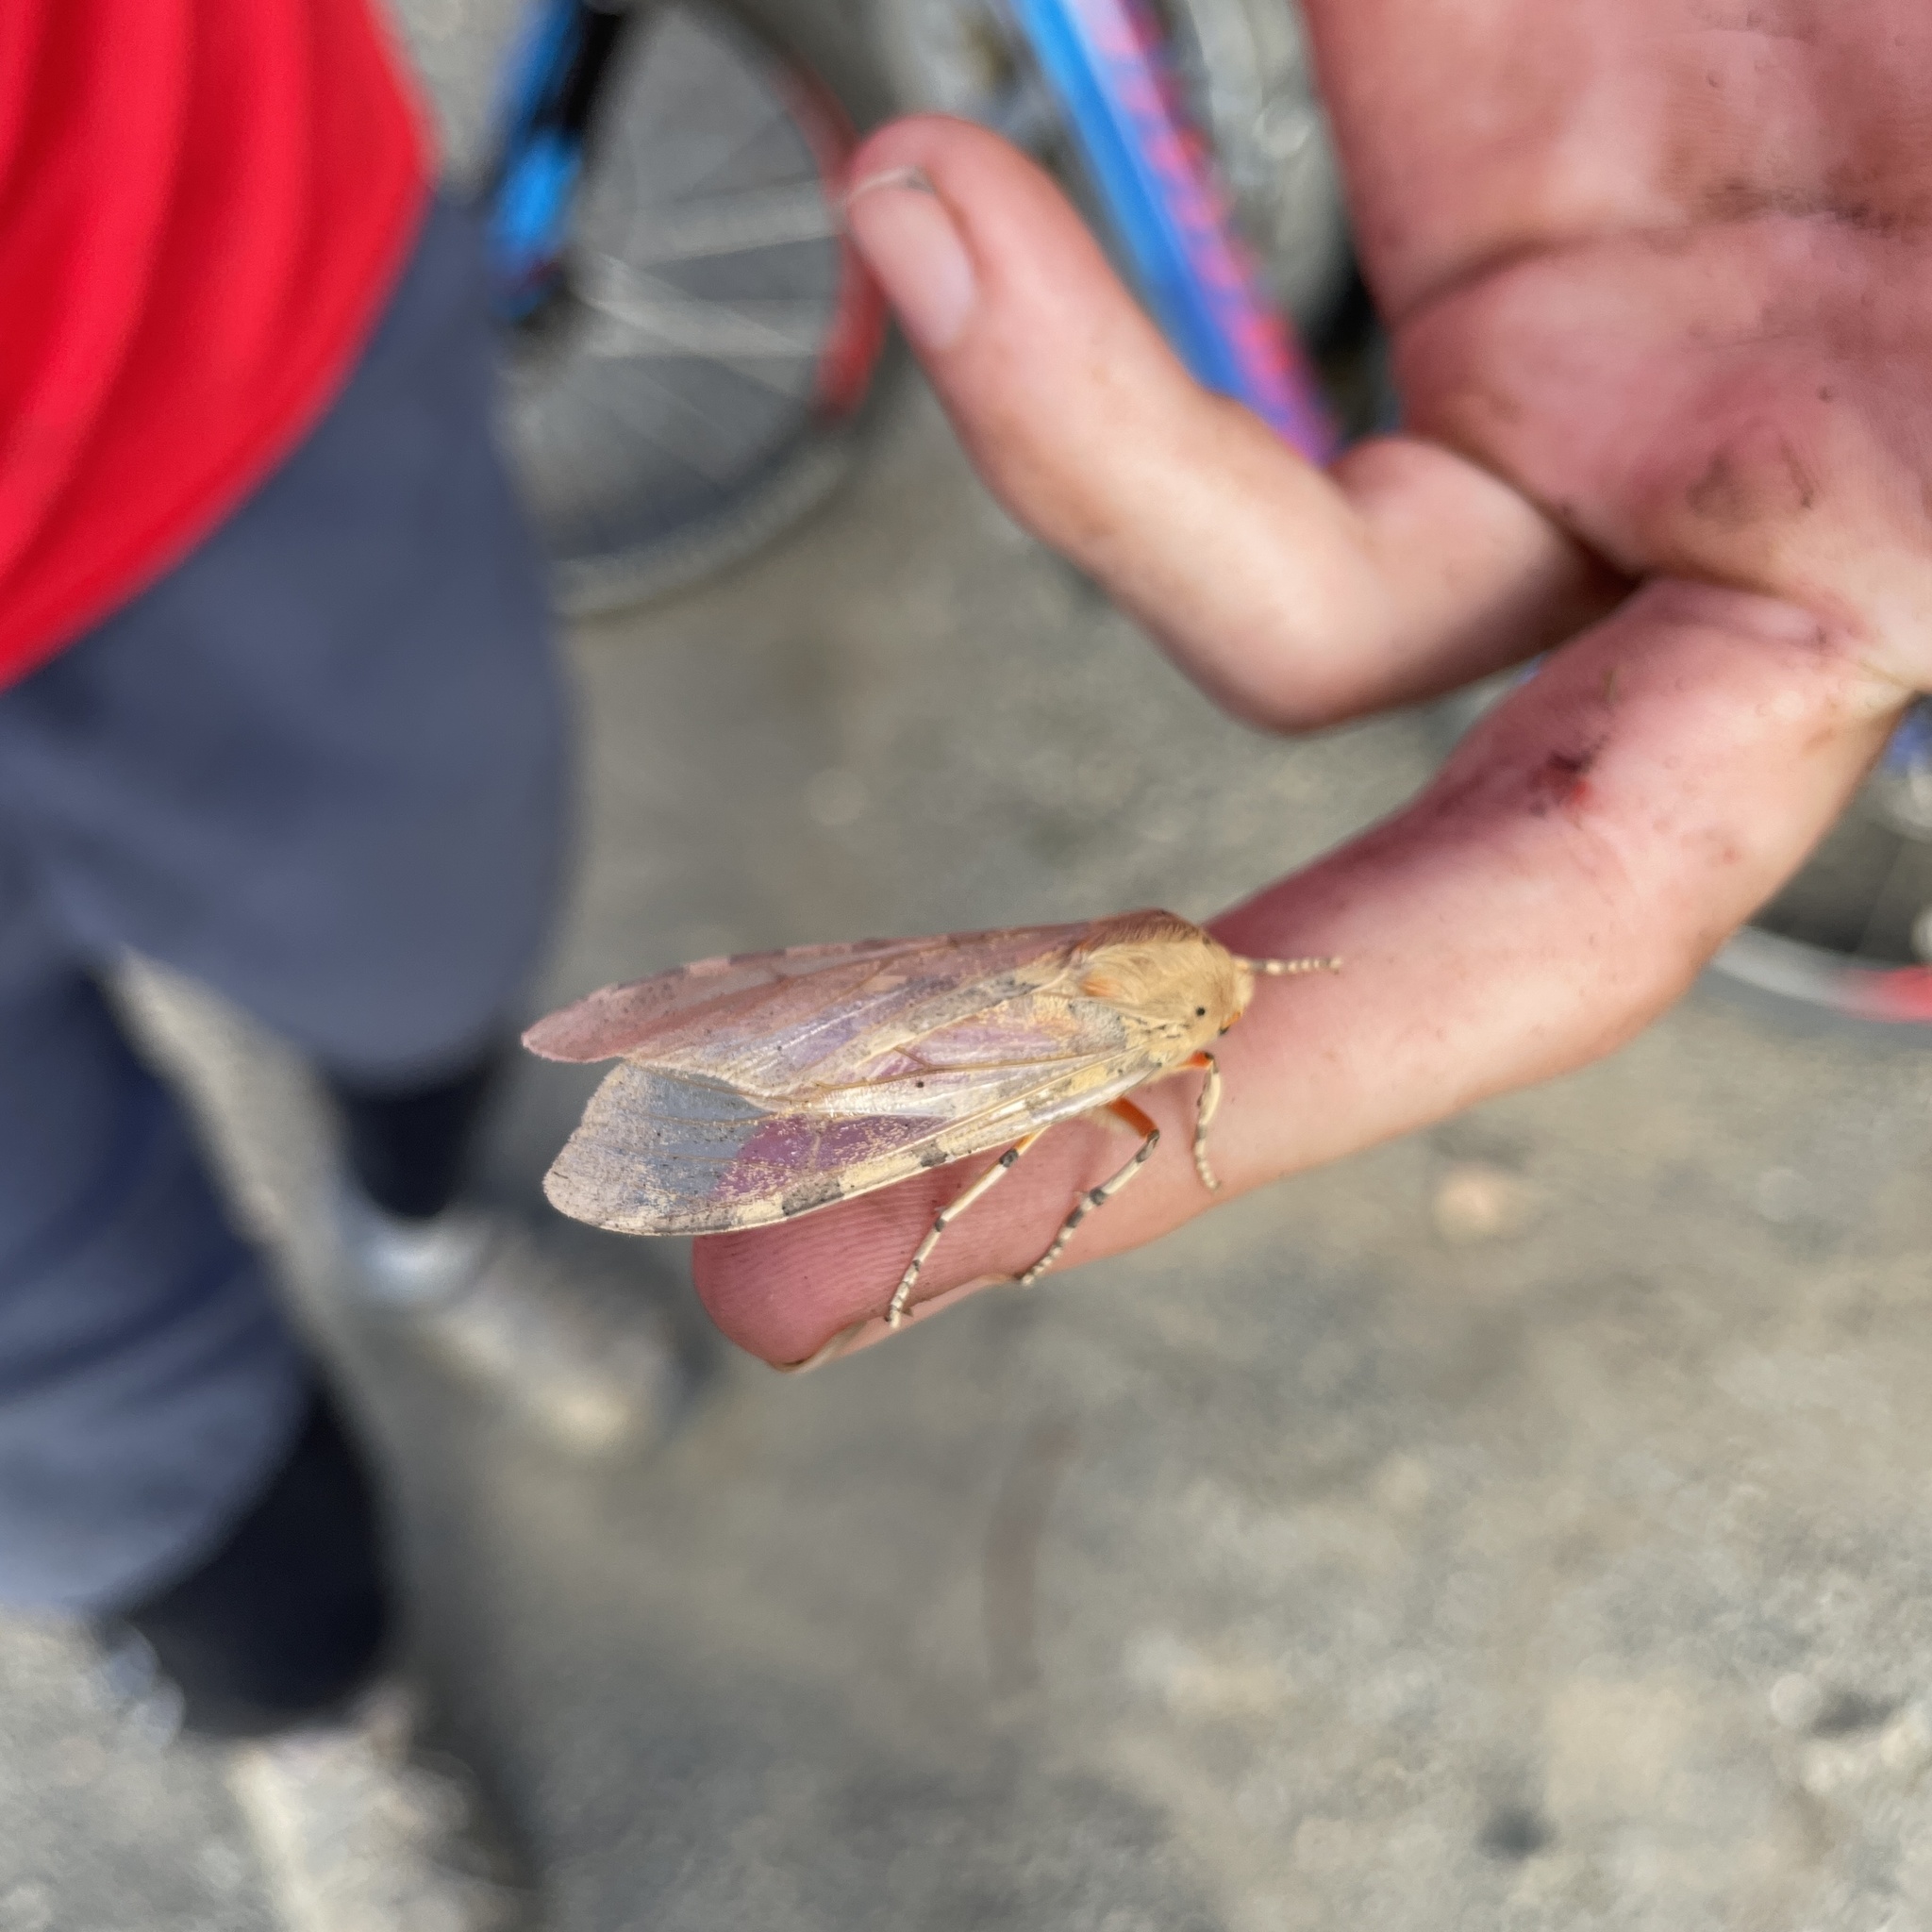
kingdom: Animalia
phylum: Arthropoda
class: Insecta
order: Lepidoptera
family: Erebidae
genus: Hemihyalea
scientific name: Hemihyalea edwardsii
